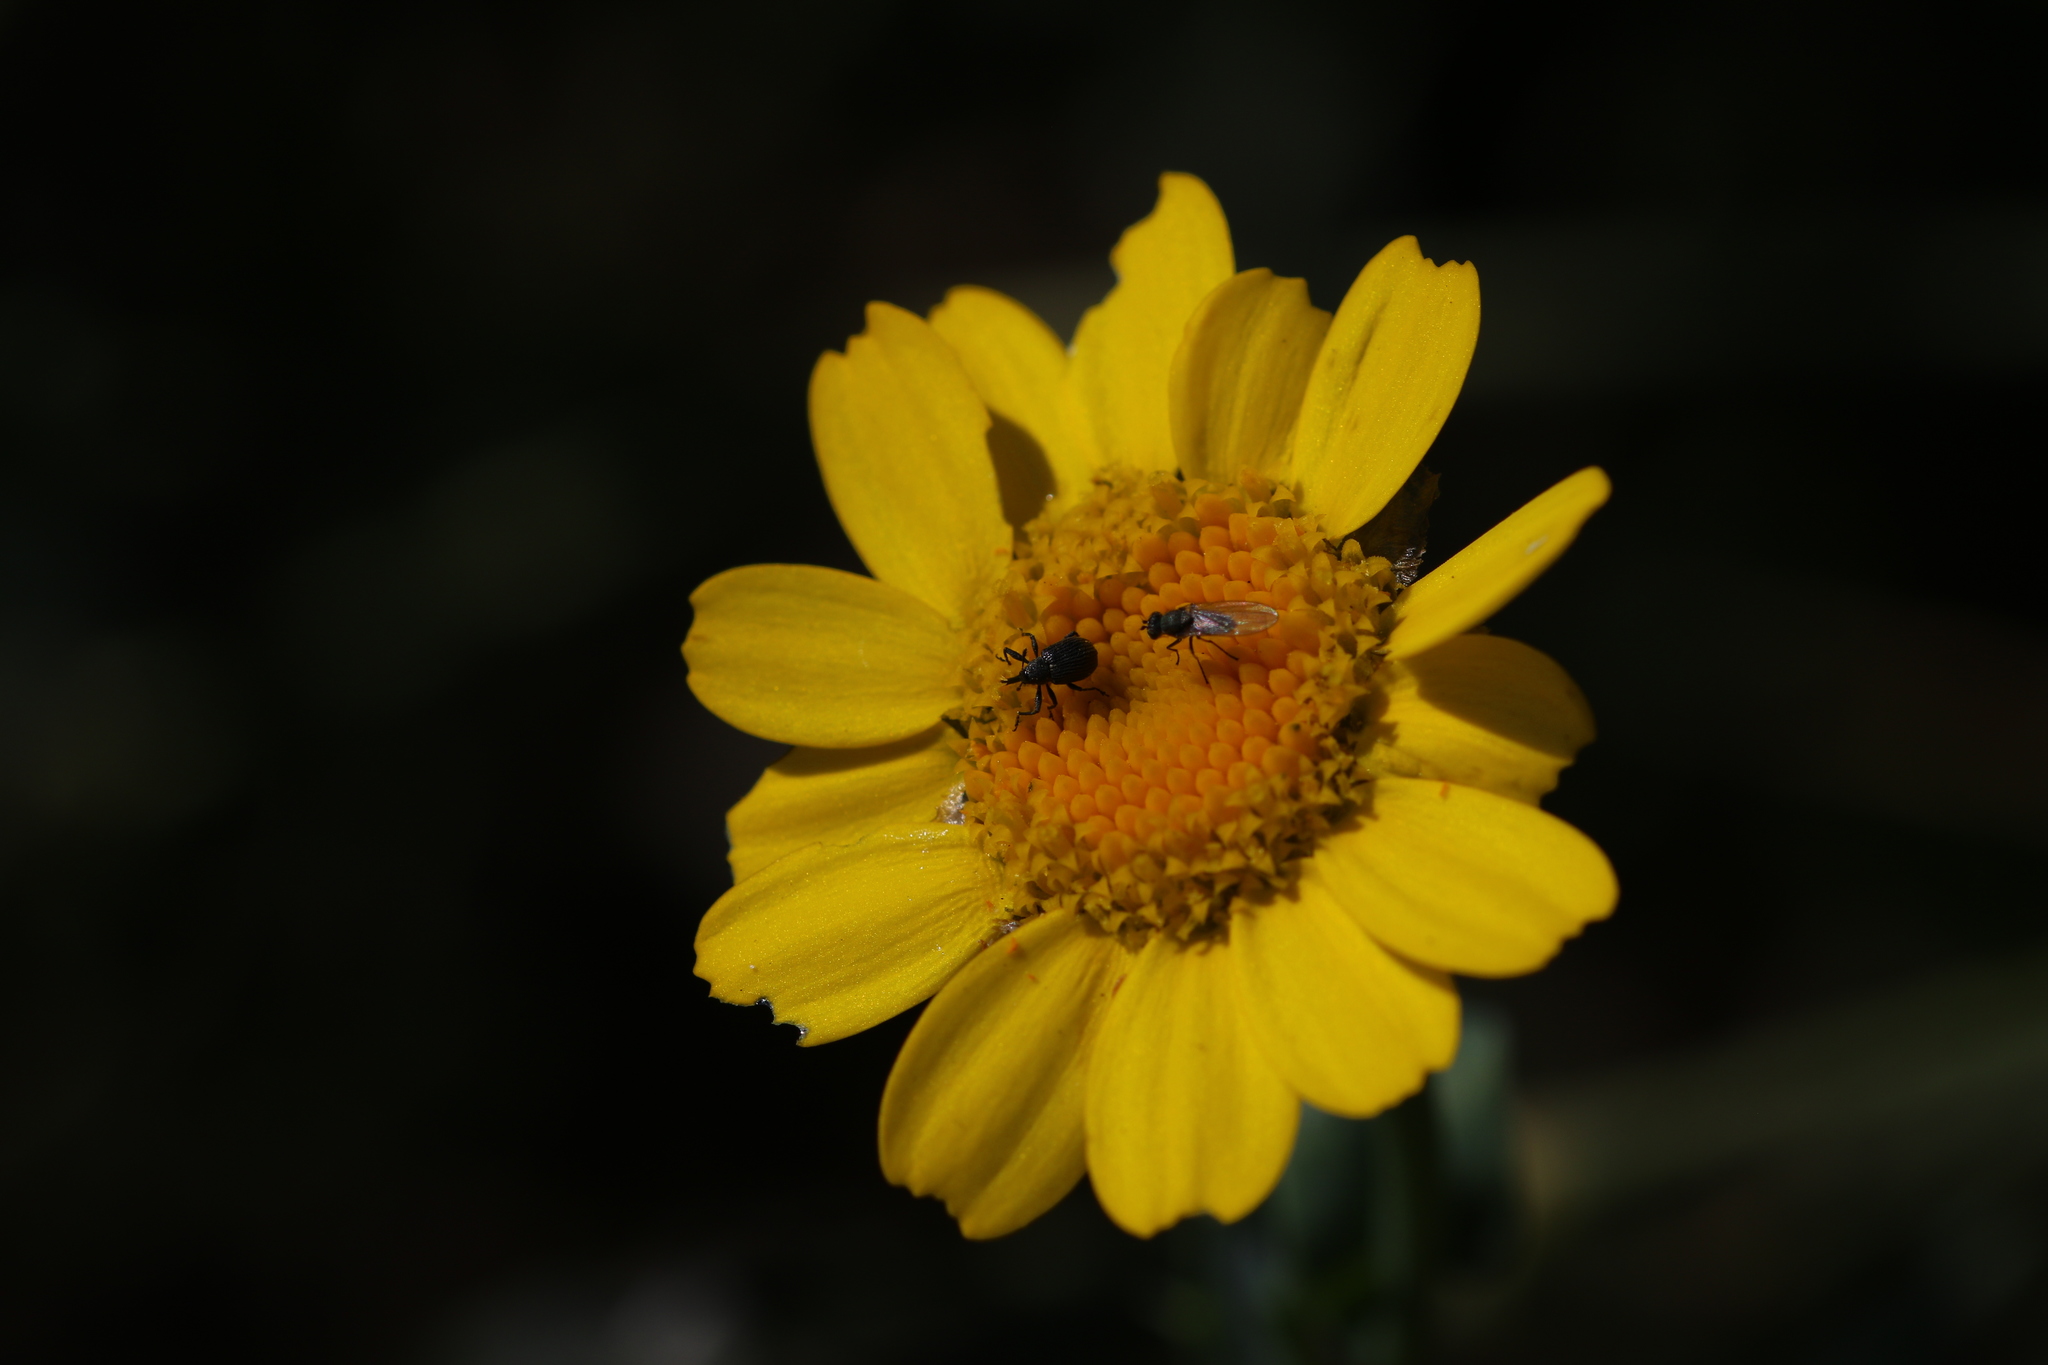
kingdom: Animalia
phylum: Arthropoda
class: Insecta
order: Coleoptera
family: Curculionidae
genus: Anthonomus
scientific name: Anthonomus rubi
